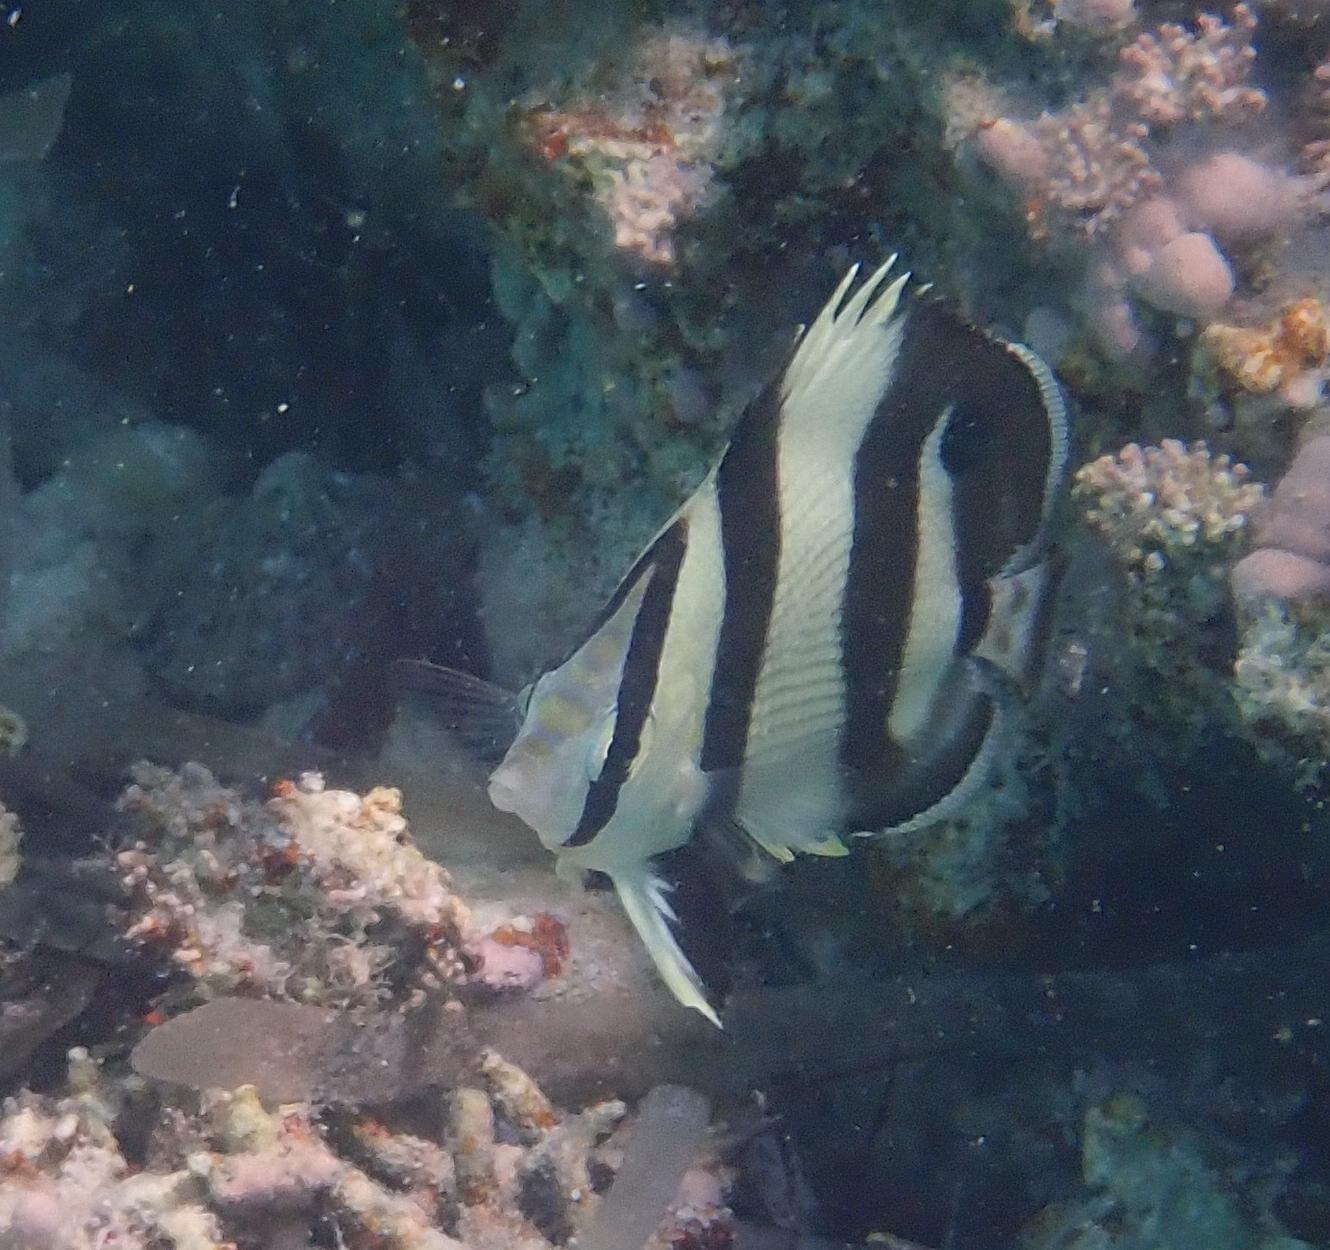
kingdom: Animalia
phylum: Chordata
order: Perciformes
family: Chaetodontidae
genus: Chaetodon
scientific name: Chaetodon striatus
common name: Banded butterflyfish
